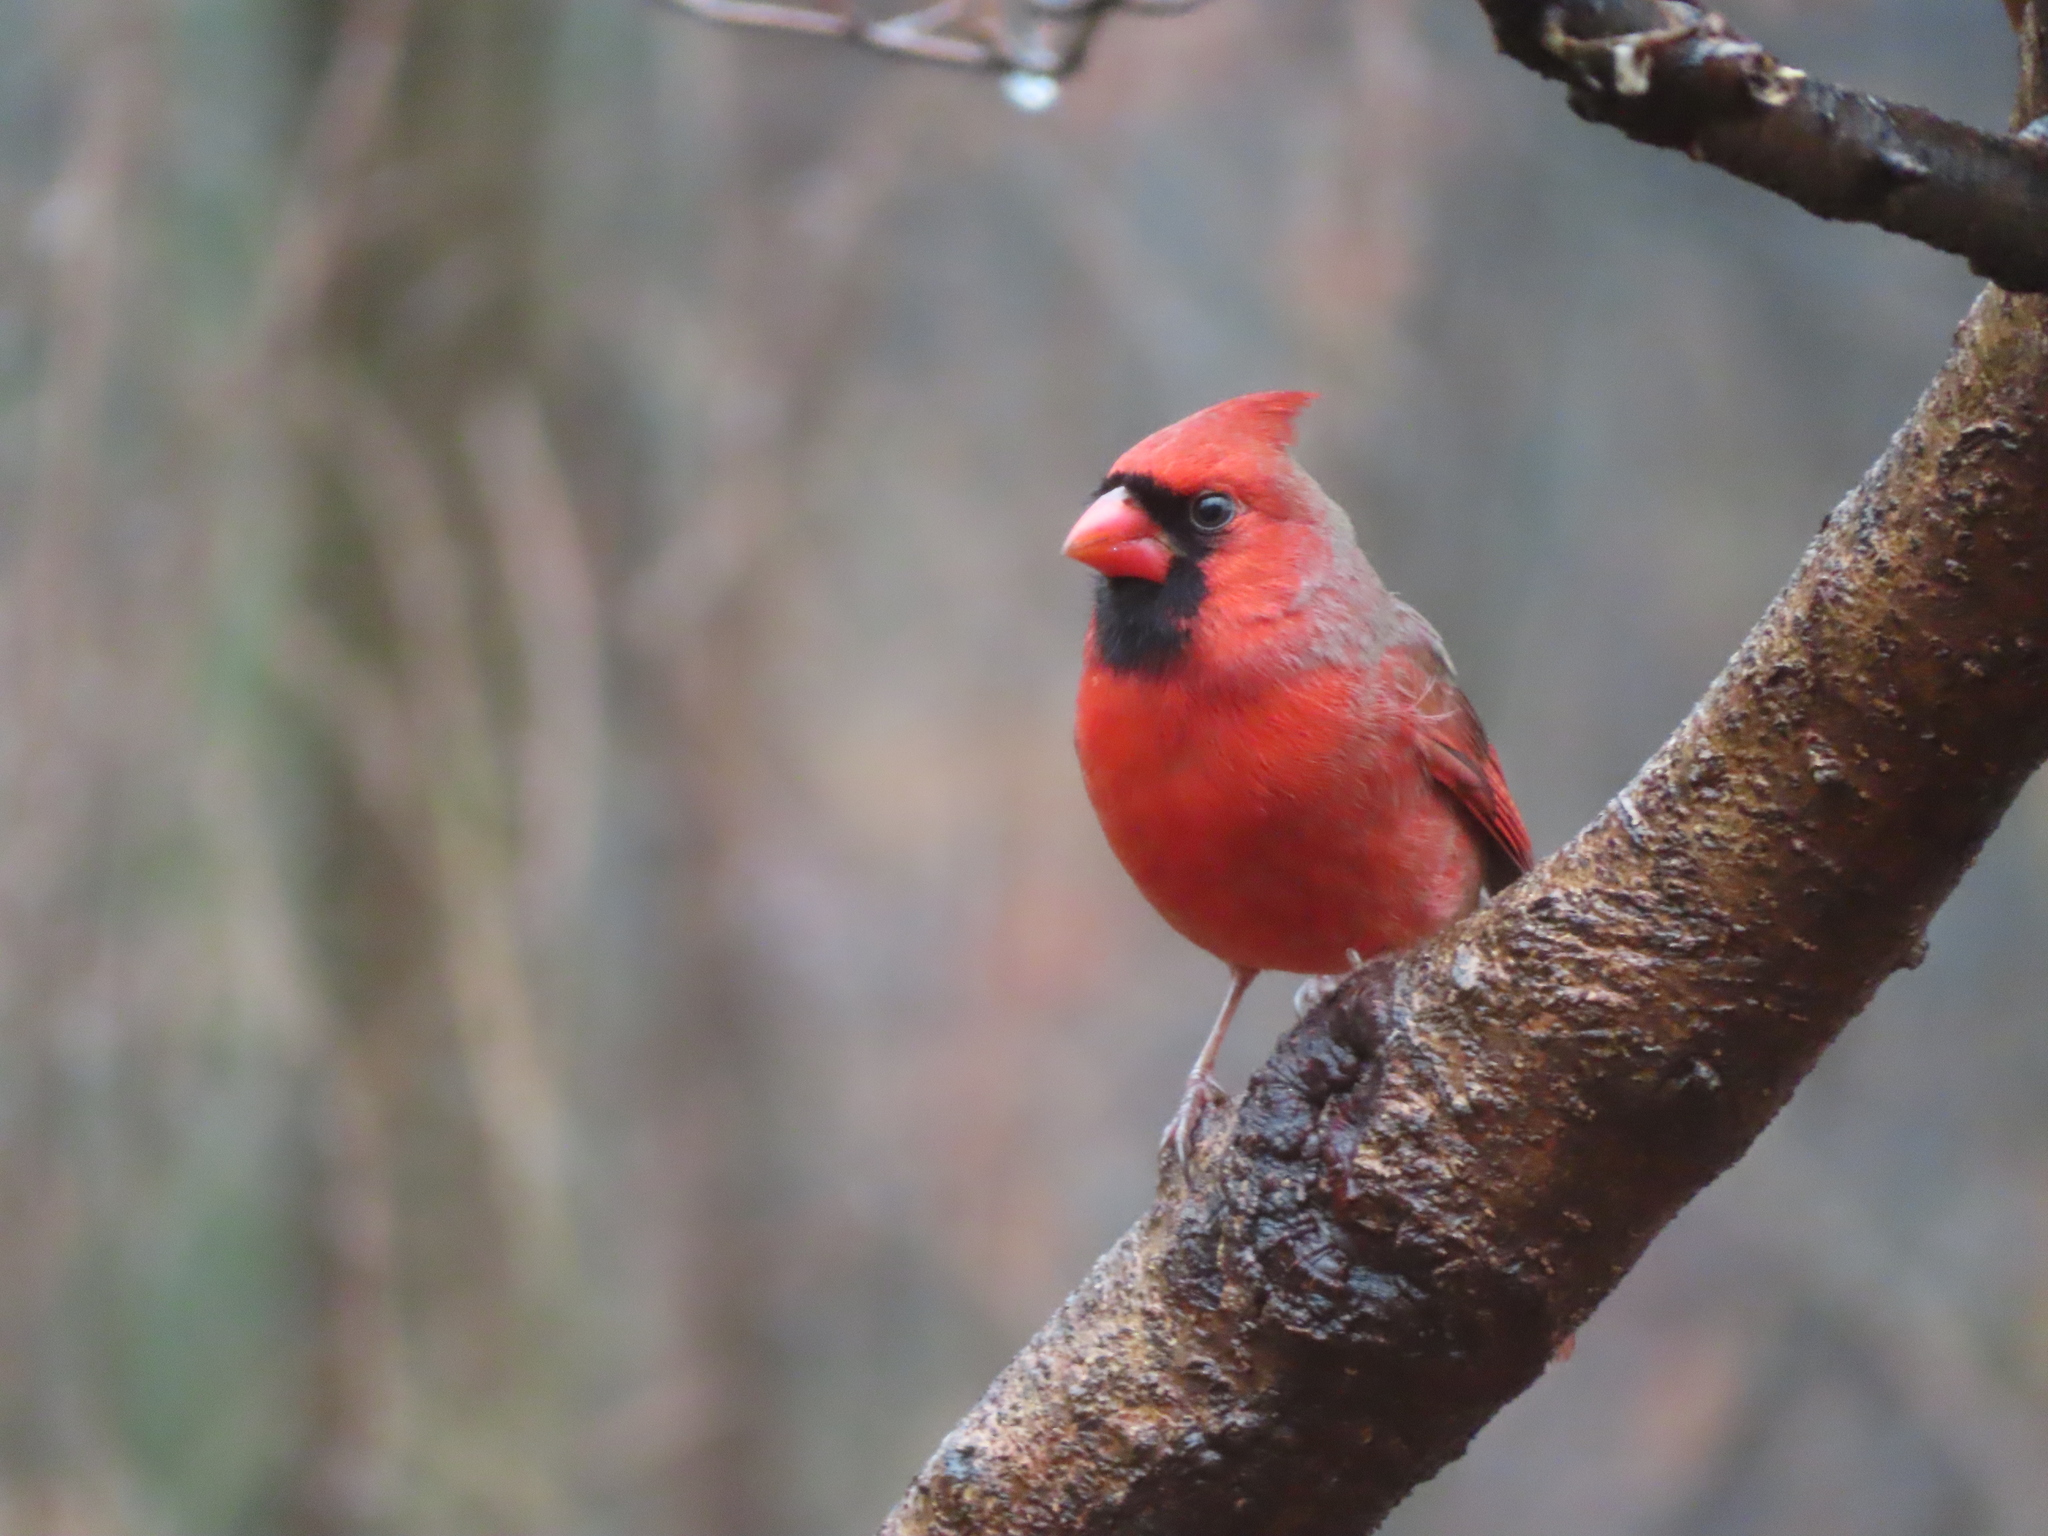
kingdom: Animalia
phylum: Chordata
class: Aves
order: Passeriformes
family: Cardinalidae
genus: Cardinalis
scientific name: Cardinalis cardinalis
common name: Northern cardinal
